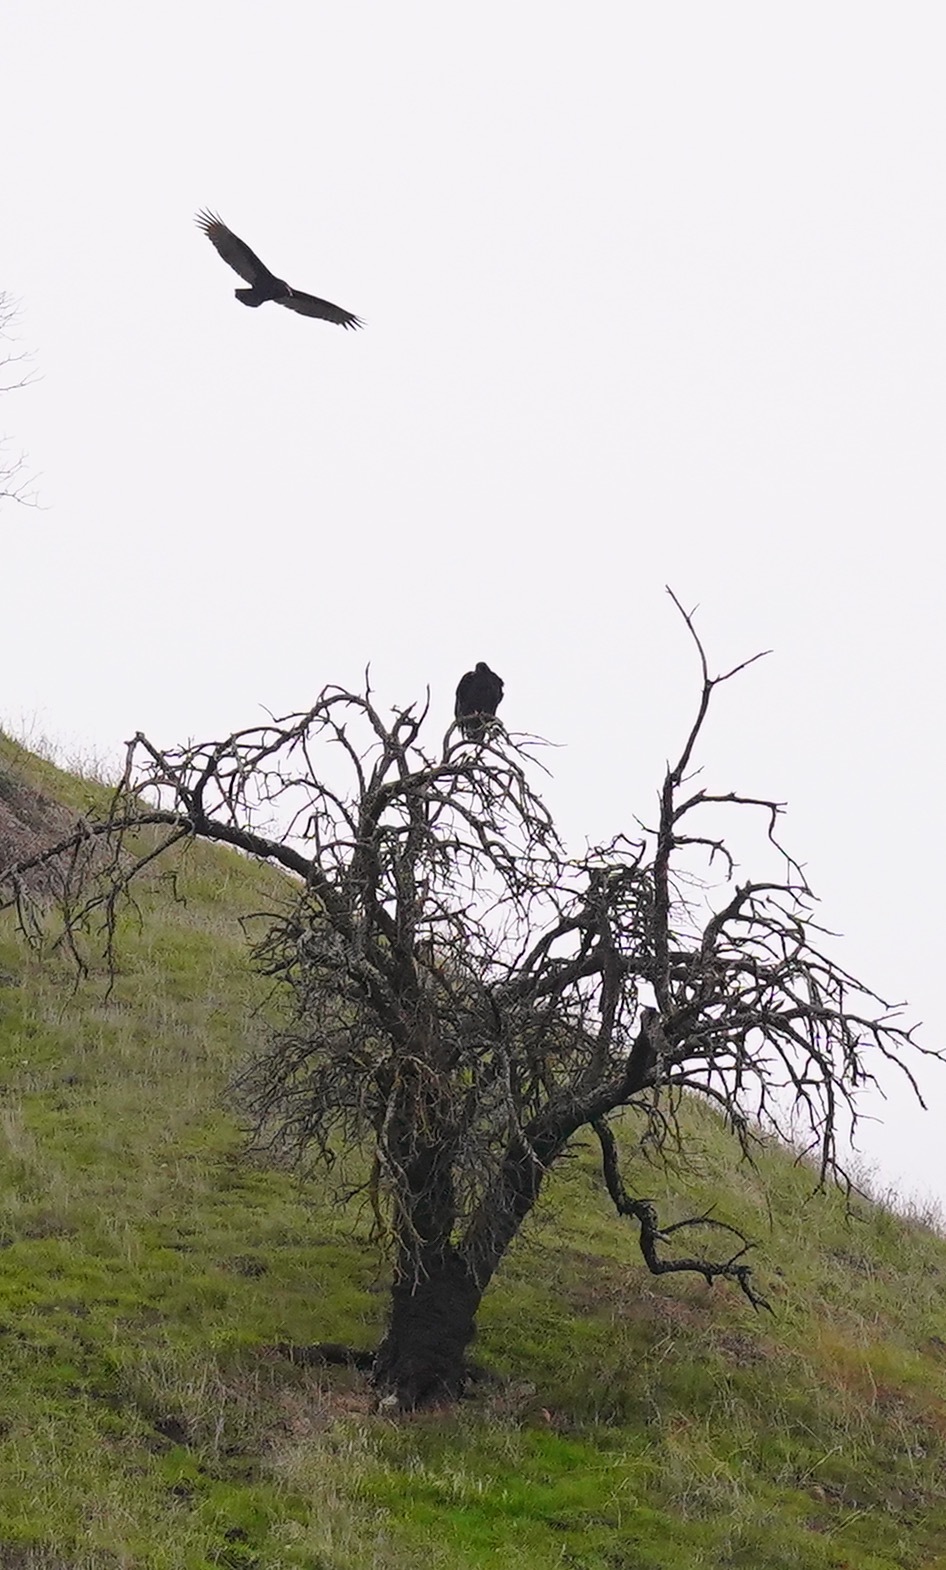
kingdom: Animalia
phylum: Chordata
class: Aves
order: Accipitriformes
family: Cathartidae
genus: Cathartes
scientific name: Cathartes aura
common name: Turkey vulture
